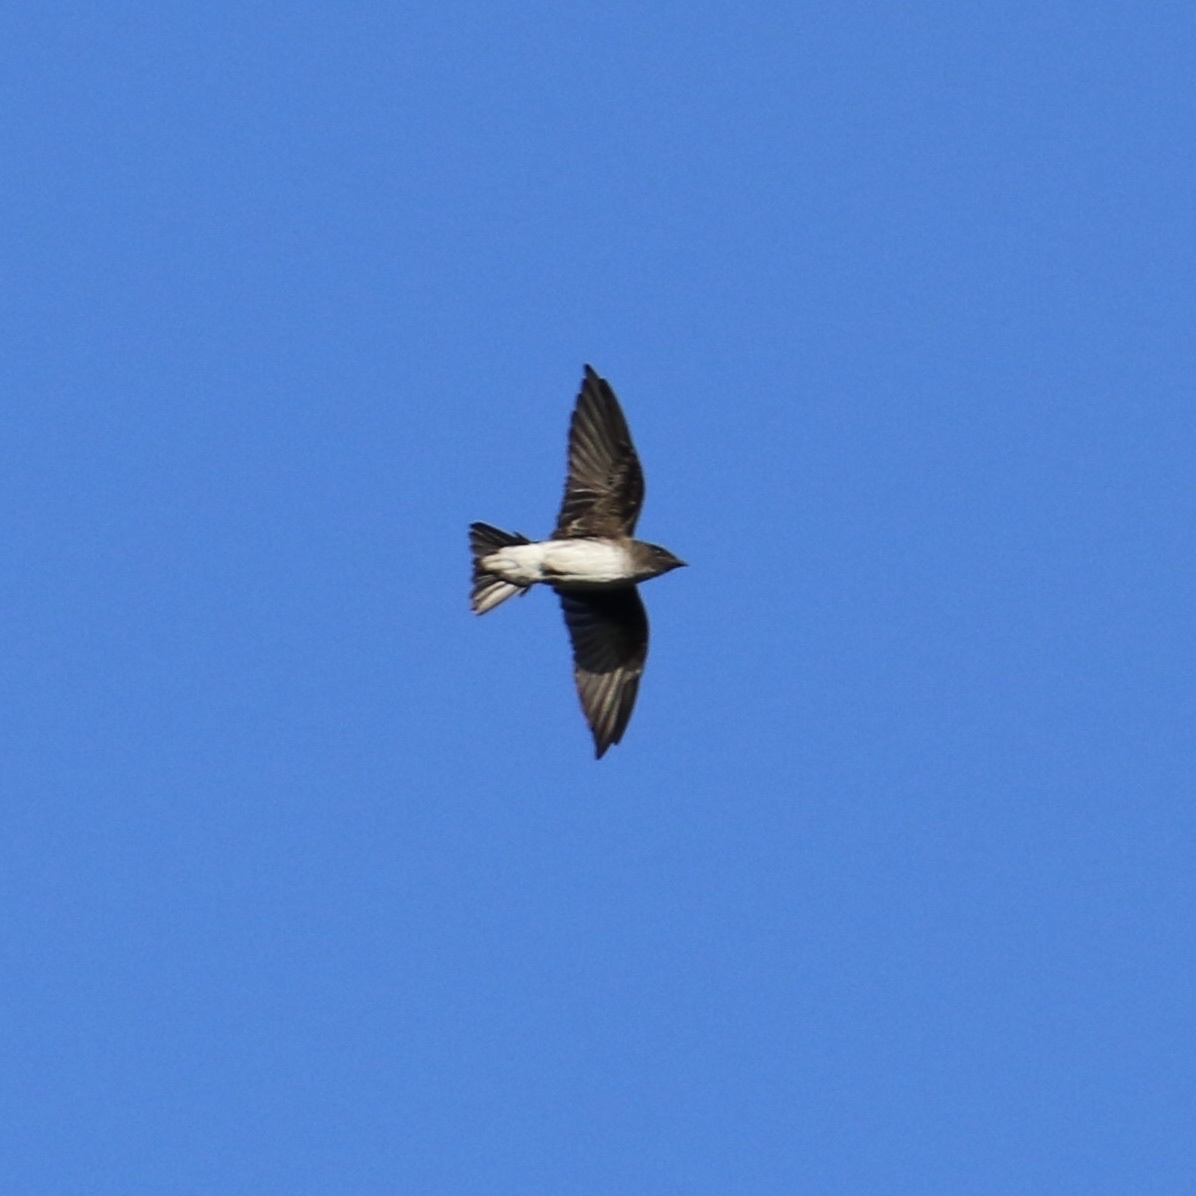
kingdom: Animalia
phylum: Chordata
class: Aves
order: Passeriformes
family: Hirundinidae
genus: Progne
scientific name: Progne chalybea
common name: Grey-breasted martin
